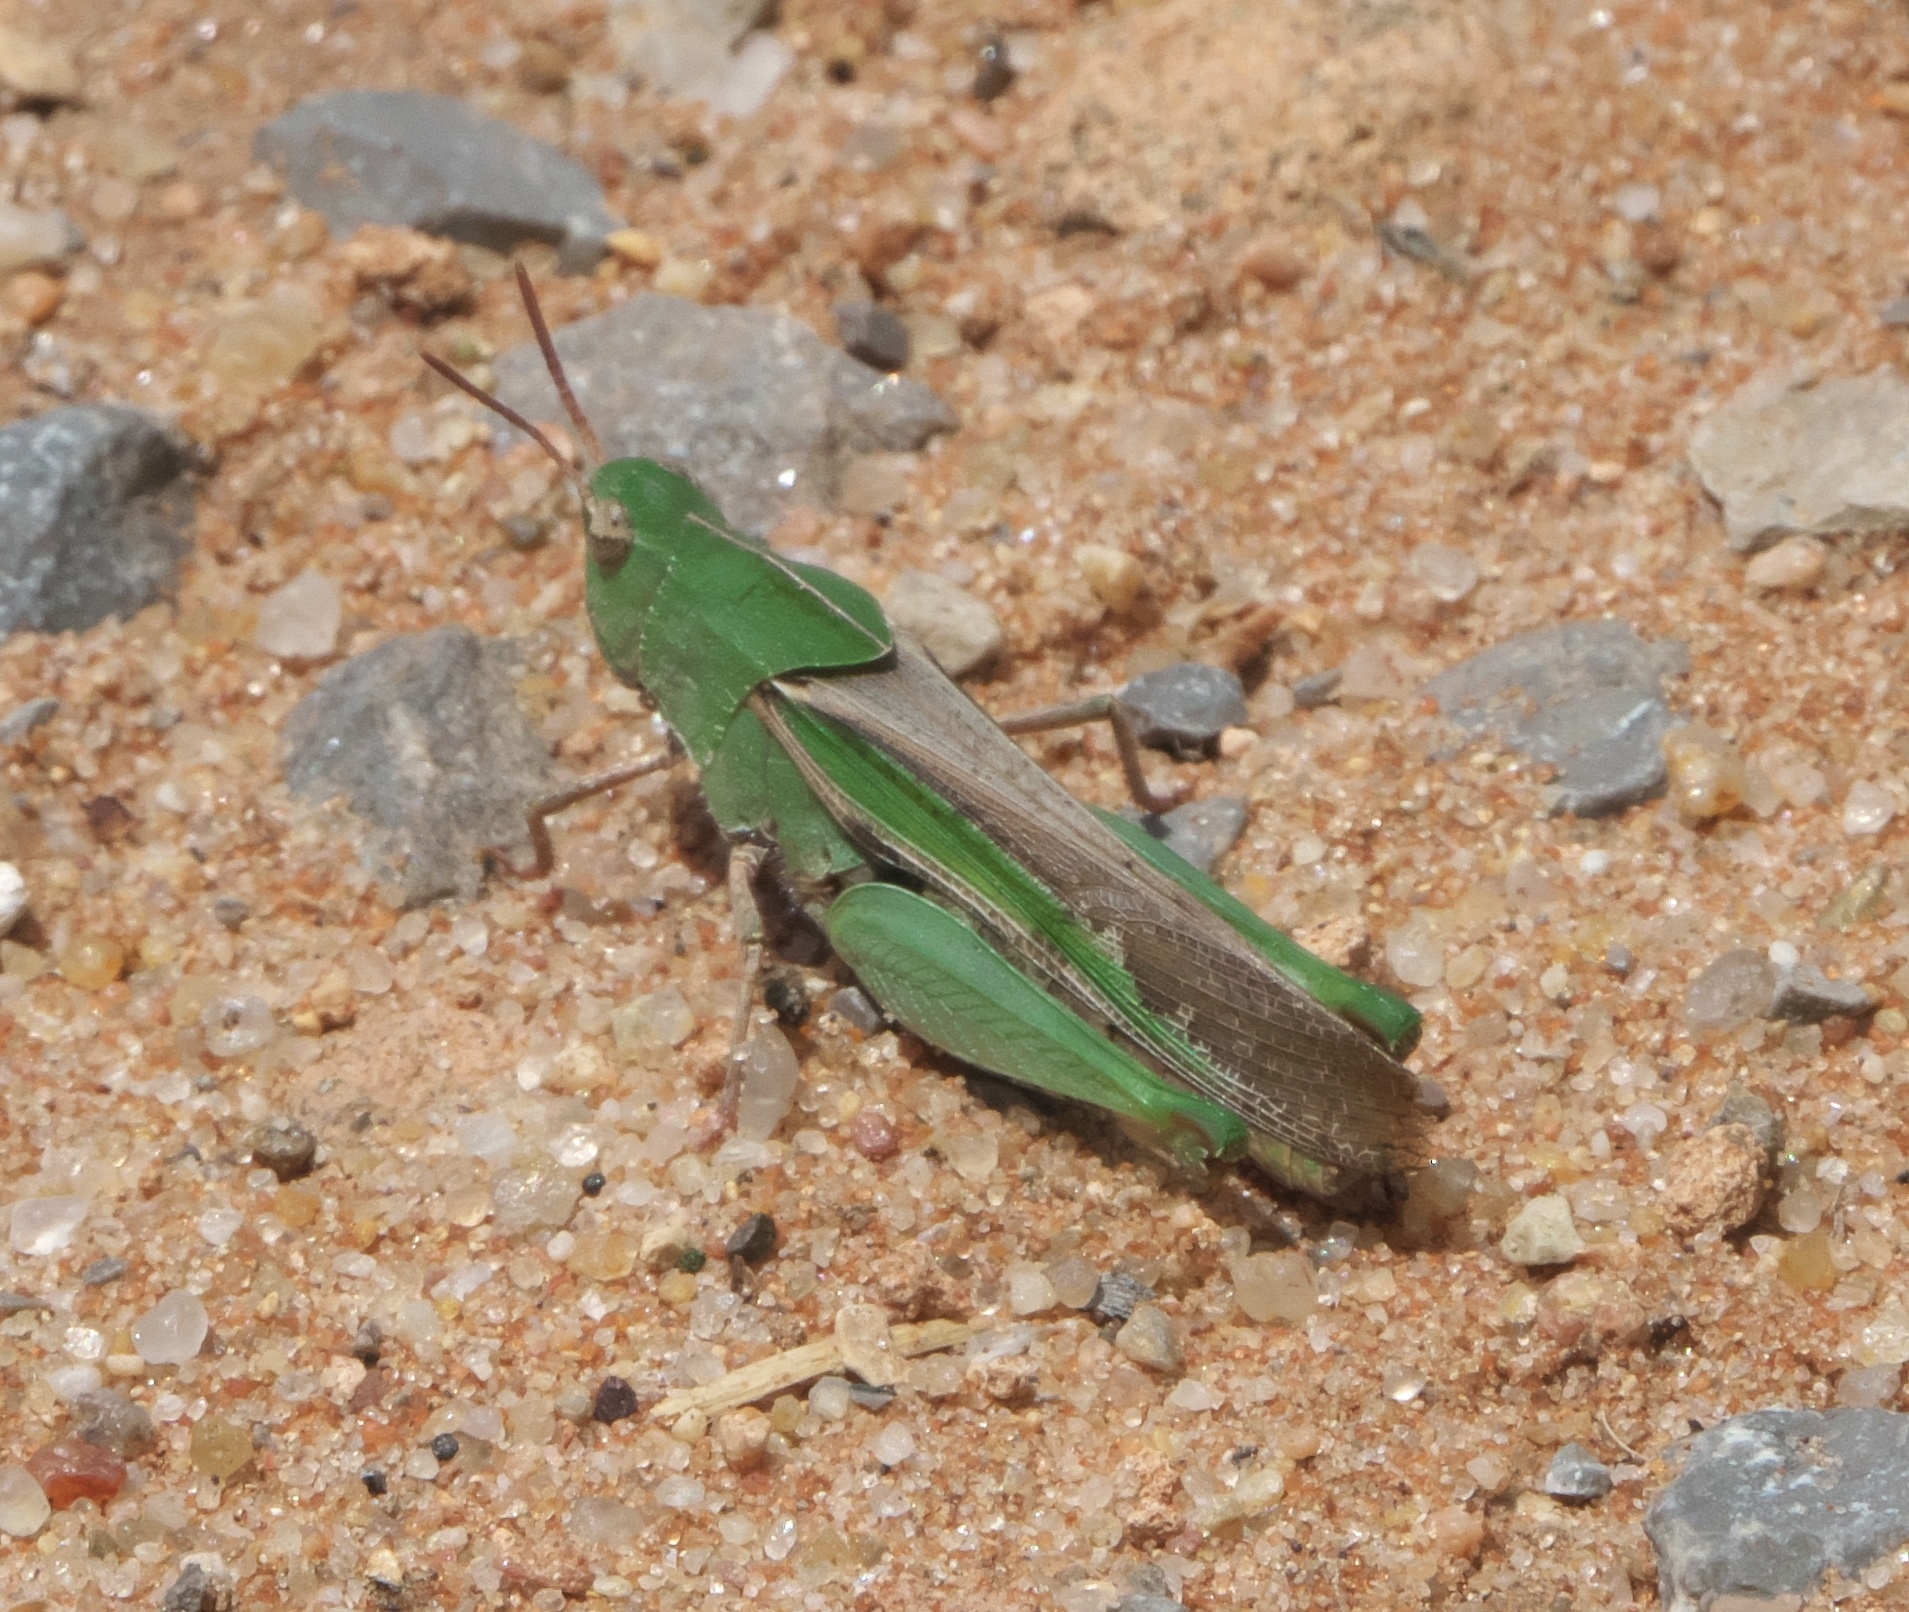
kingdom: Animalia
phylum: Arthropoda
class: Insecta
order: Orthoptera
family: Acrididae
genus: Chortophaga
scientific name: Chortophaga viridifasciata
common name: Green-striped grasshopper
